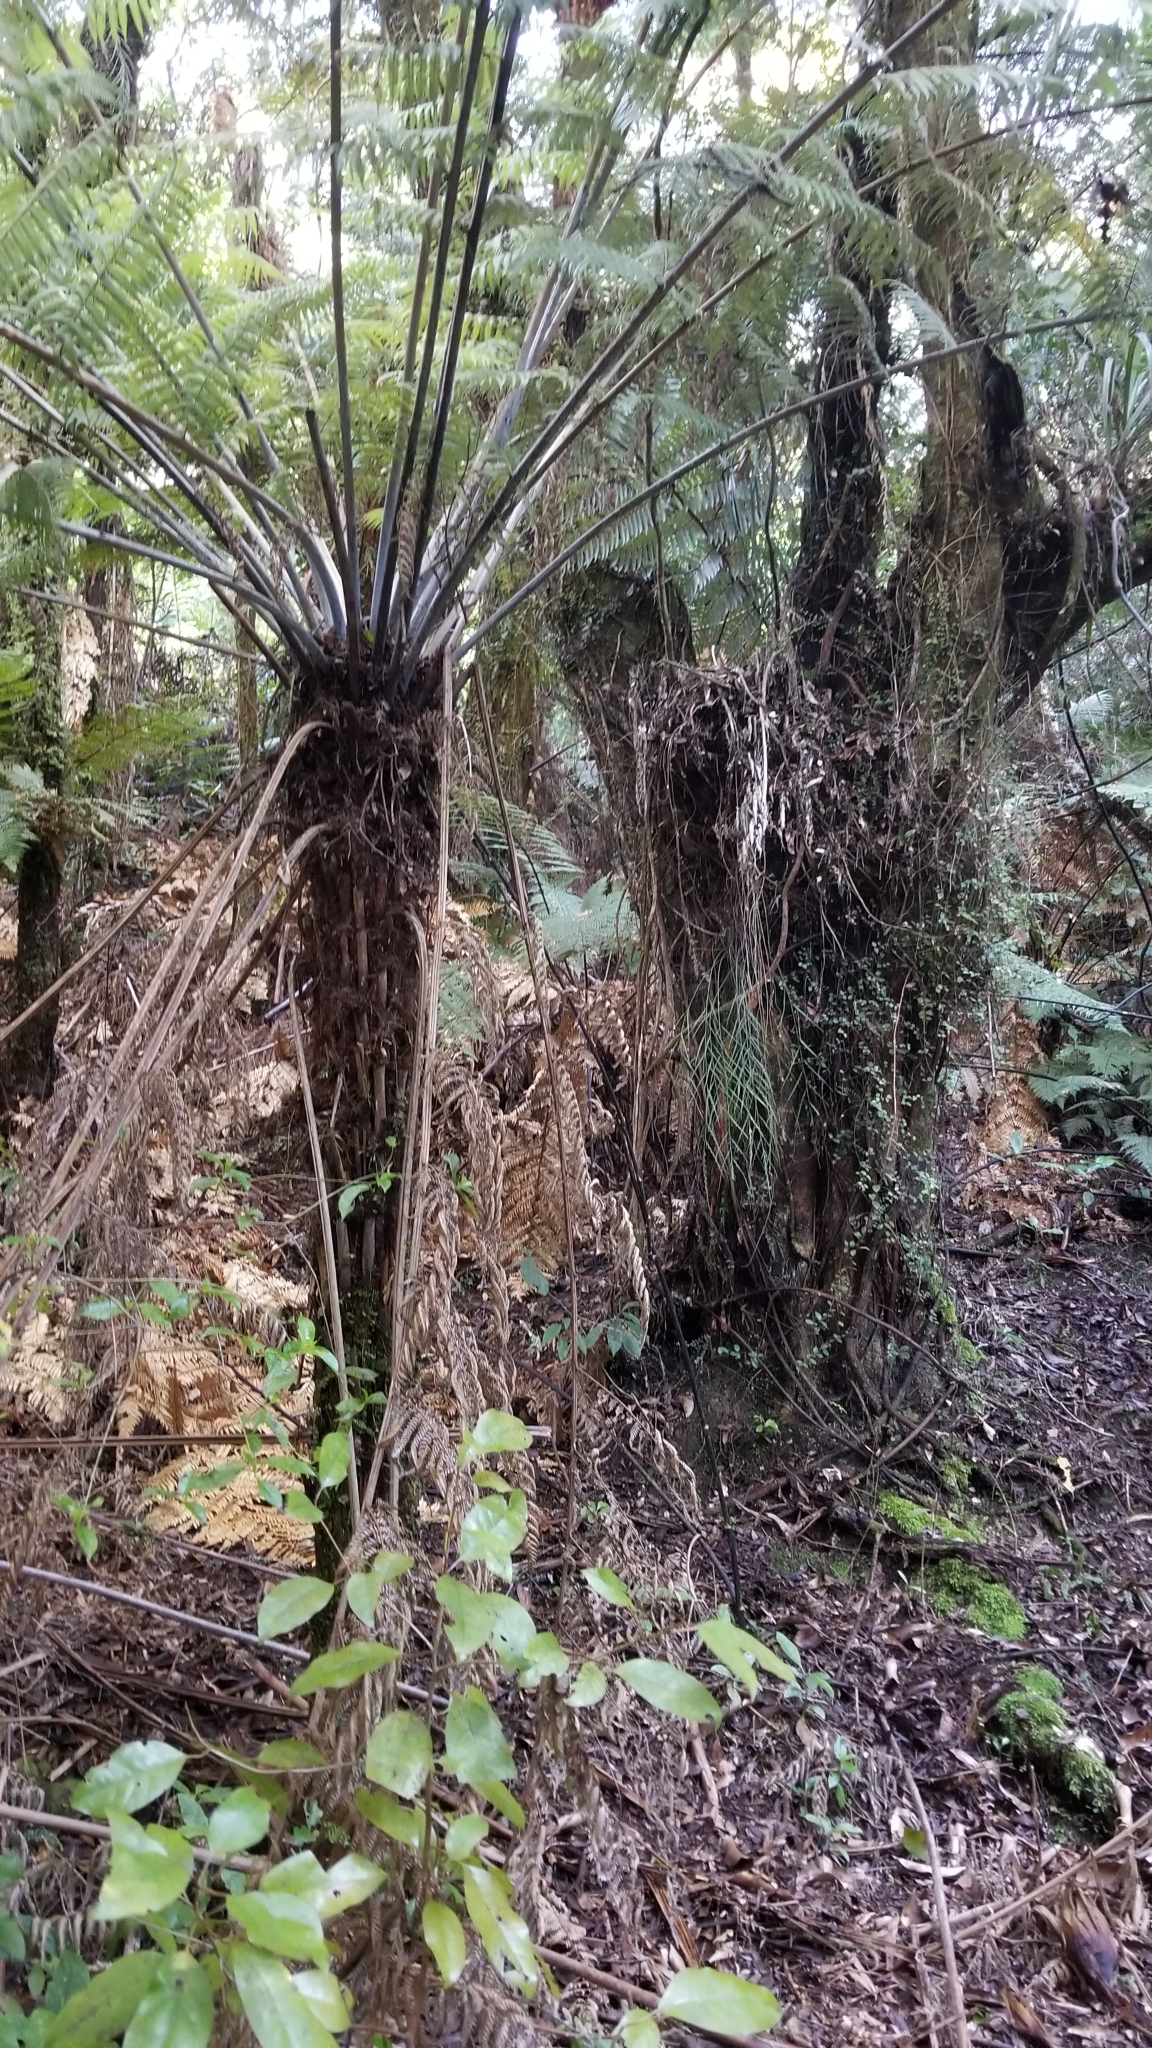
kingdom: Plantae
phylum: Tracheophyta
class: Polypodiopsida
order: Cyatheales
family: Cyatheaceae
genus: Alsophila
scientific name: Alsophila dealbata
